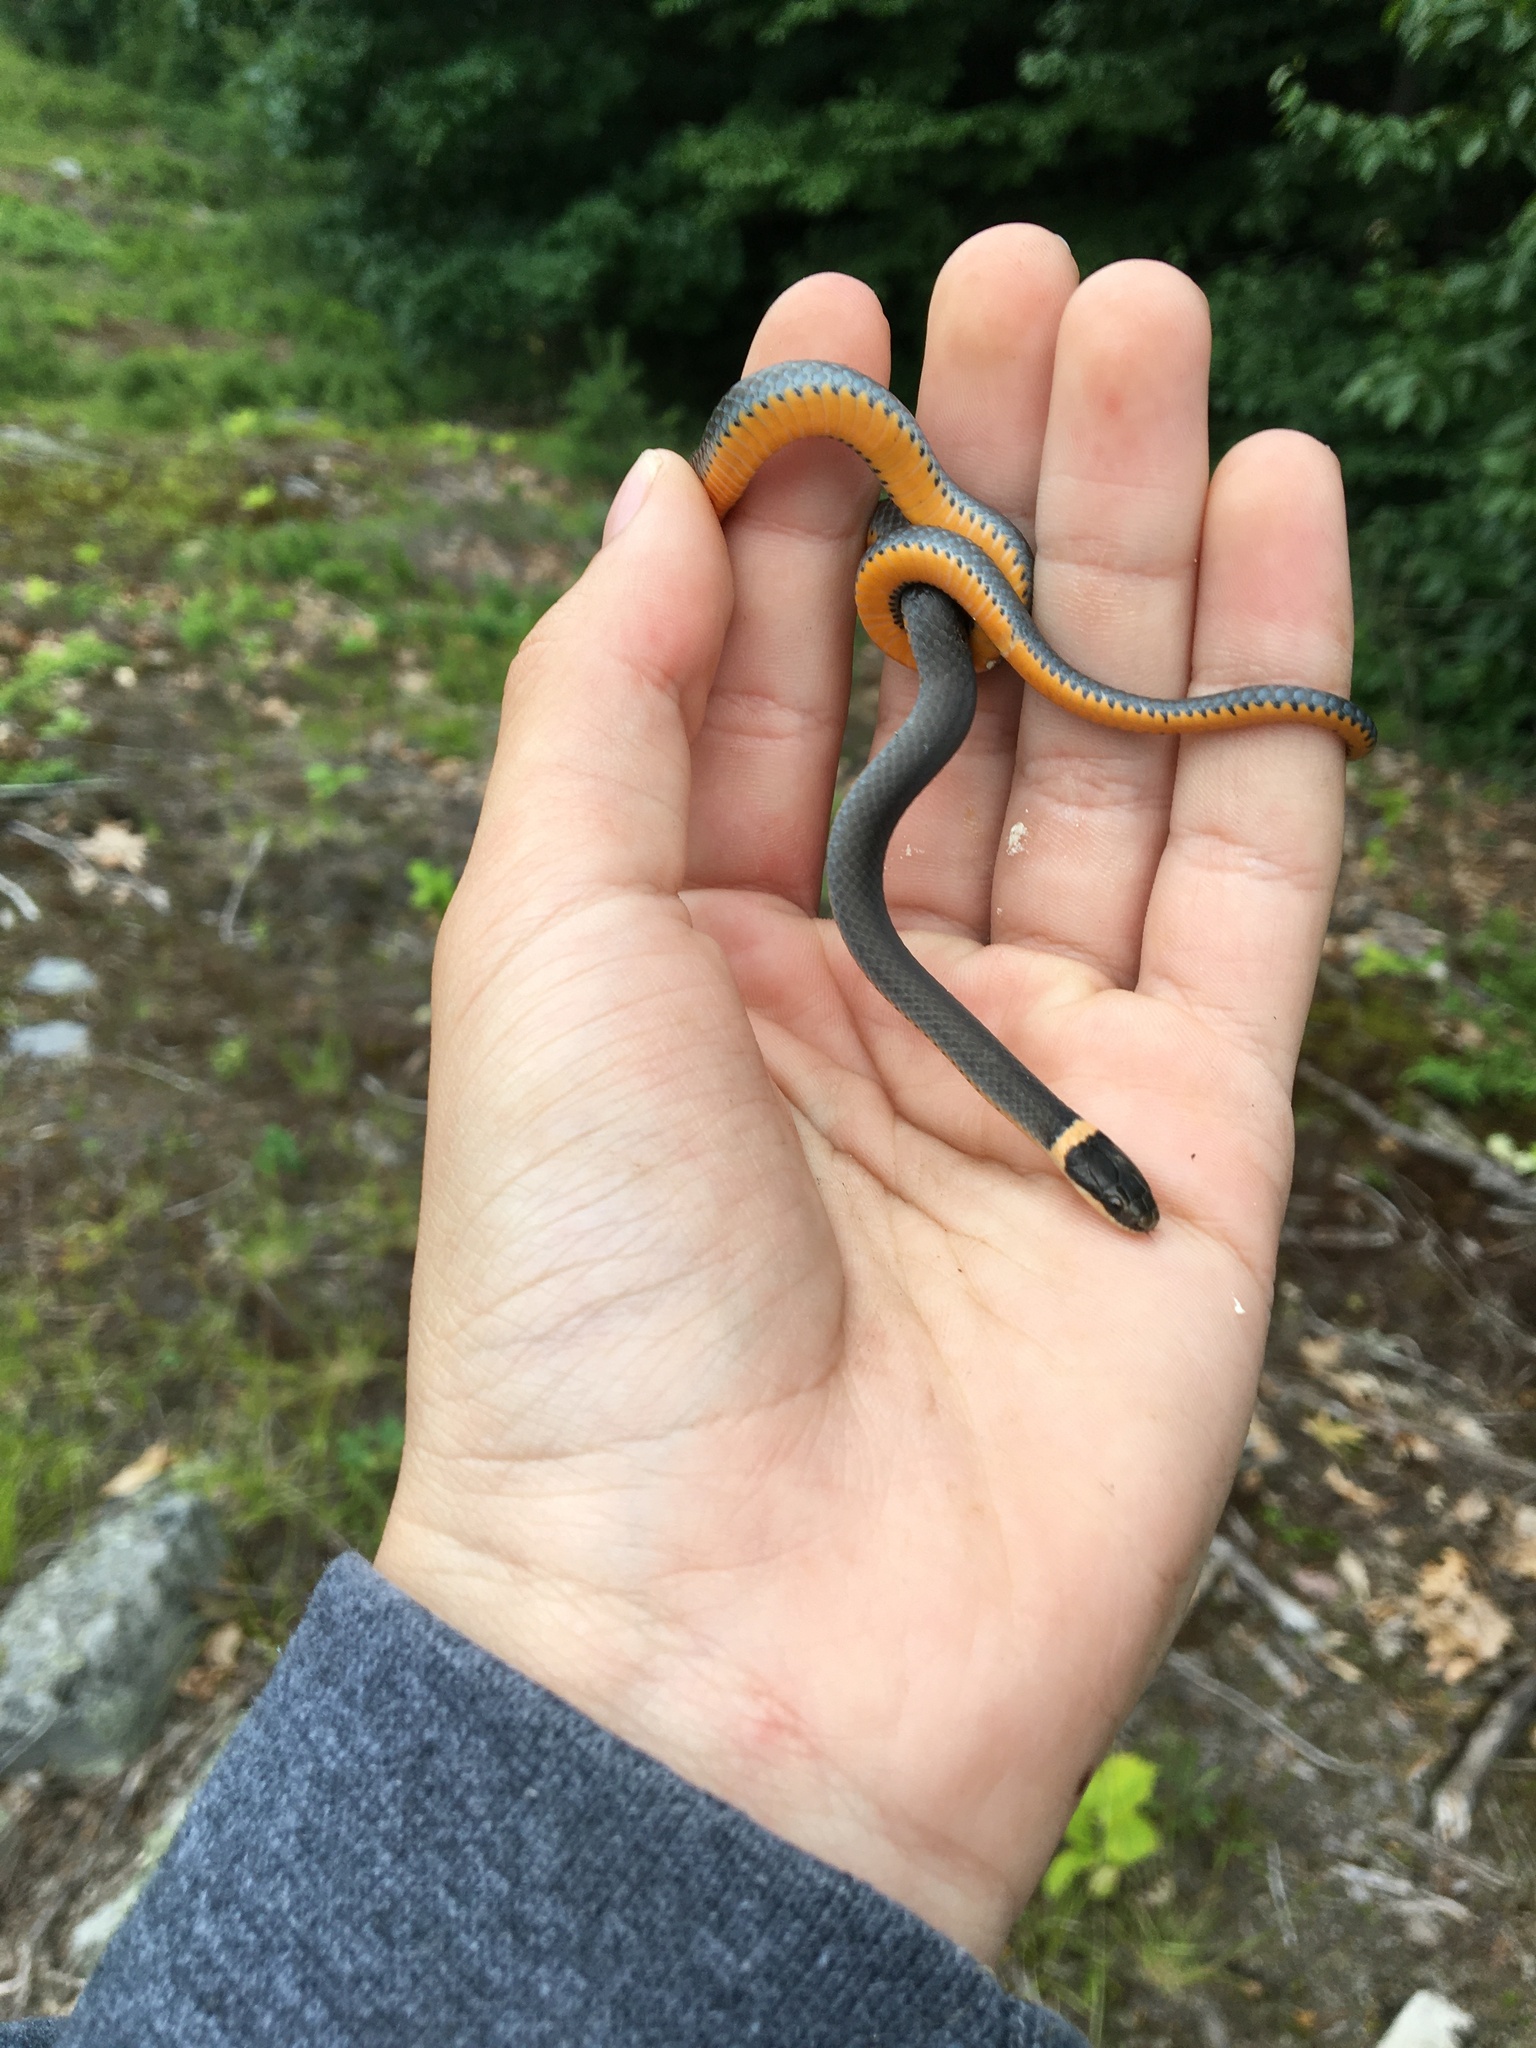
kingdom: Animalia
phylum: Chordata
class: Squamata
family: Colubridae
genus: Diadophis
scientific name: Diadophis punctatus
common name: Ringneck snake
